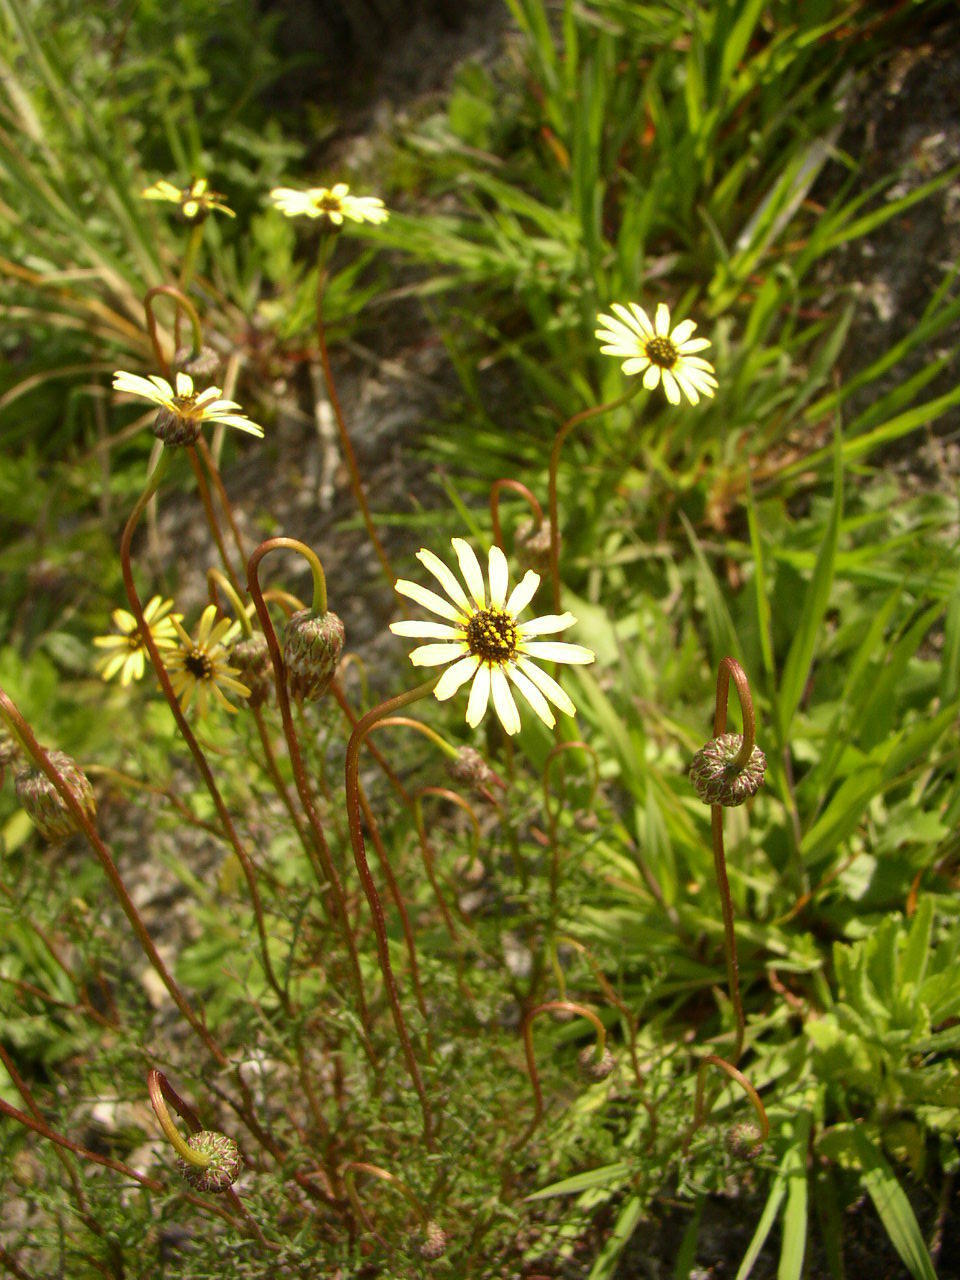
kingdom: Plantae
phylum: Tracheophyta
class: Magnoliopsida
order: Asterales
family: Asteraceae
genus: Ursinia
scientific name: Ursinia anthemoides
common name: Ursinia
